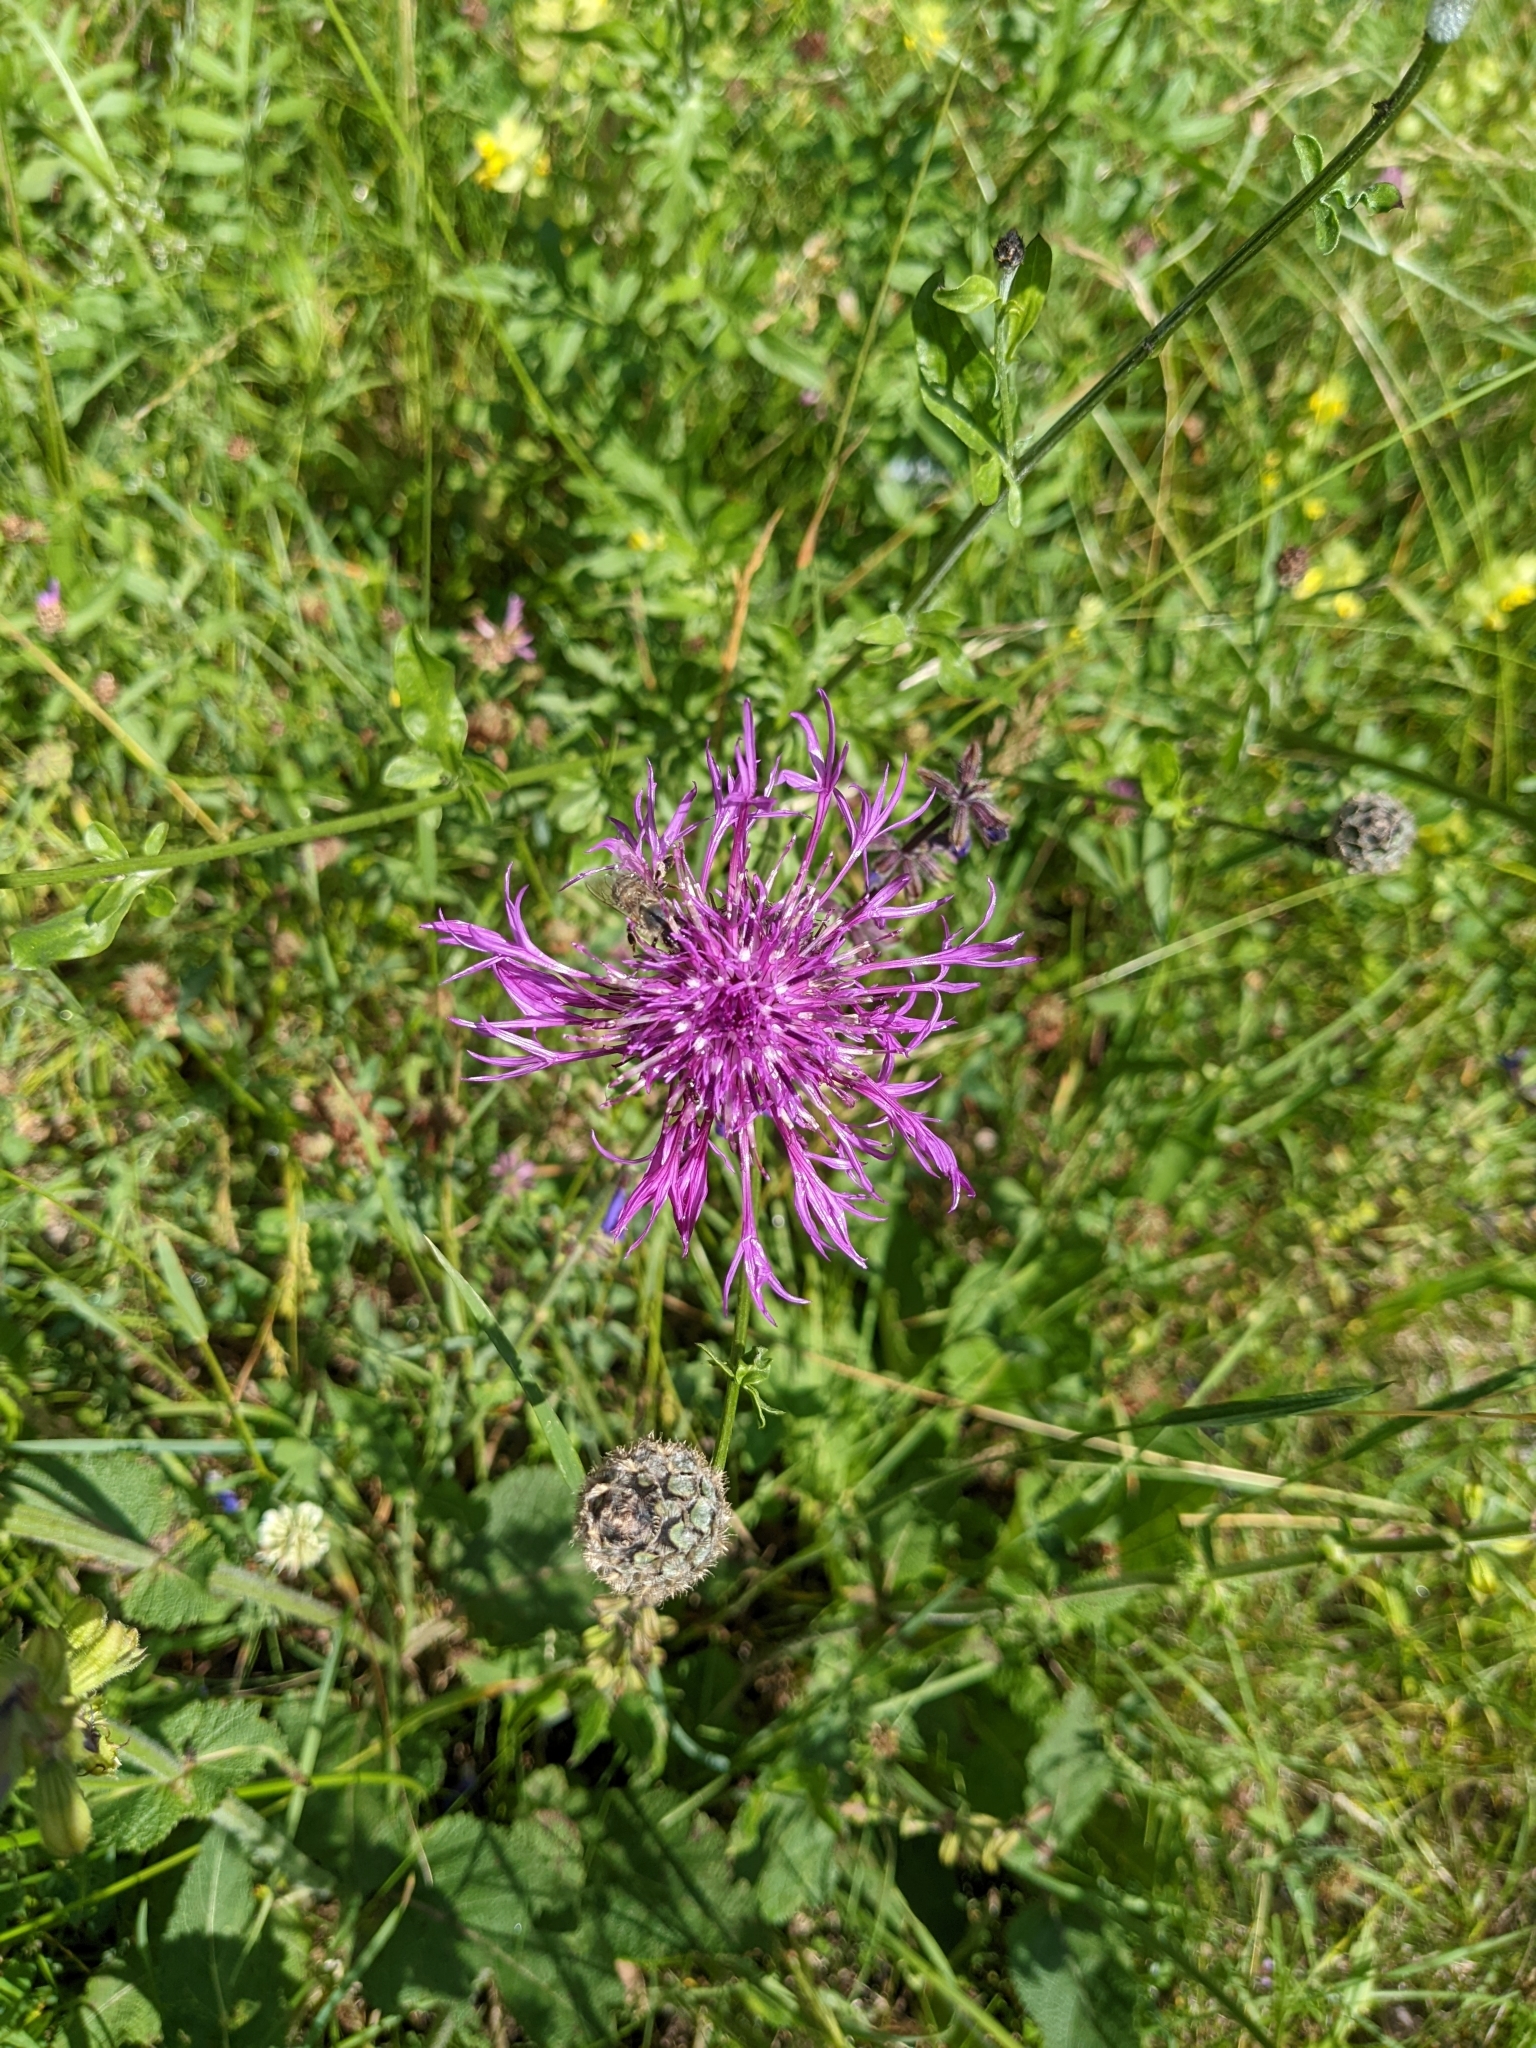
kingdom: Plantae
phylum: Tracheophyta
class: Magnoliopsida
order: Asterales
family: Asteraceae
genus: Centaurea
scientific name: Centaurea scabiosa
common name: Greater knapweed
